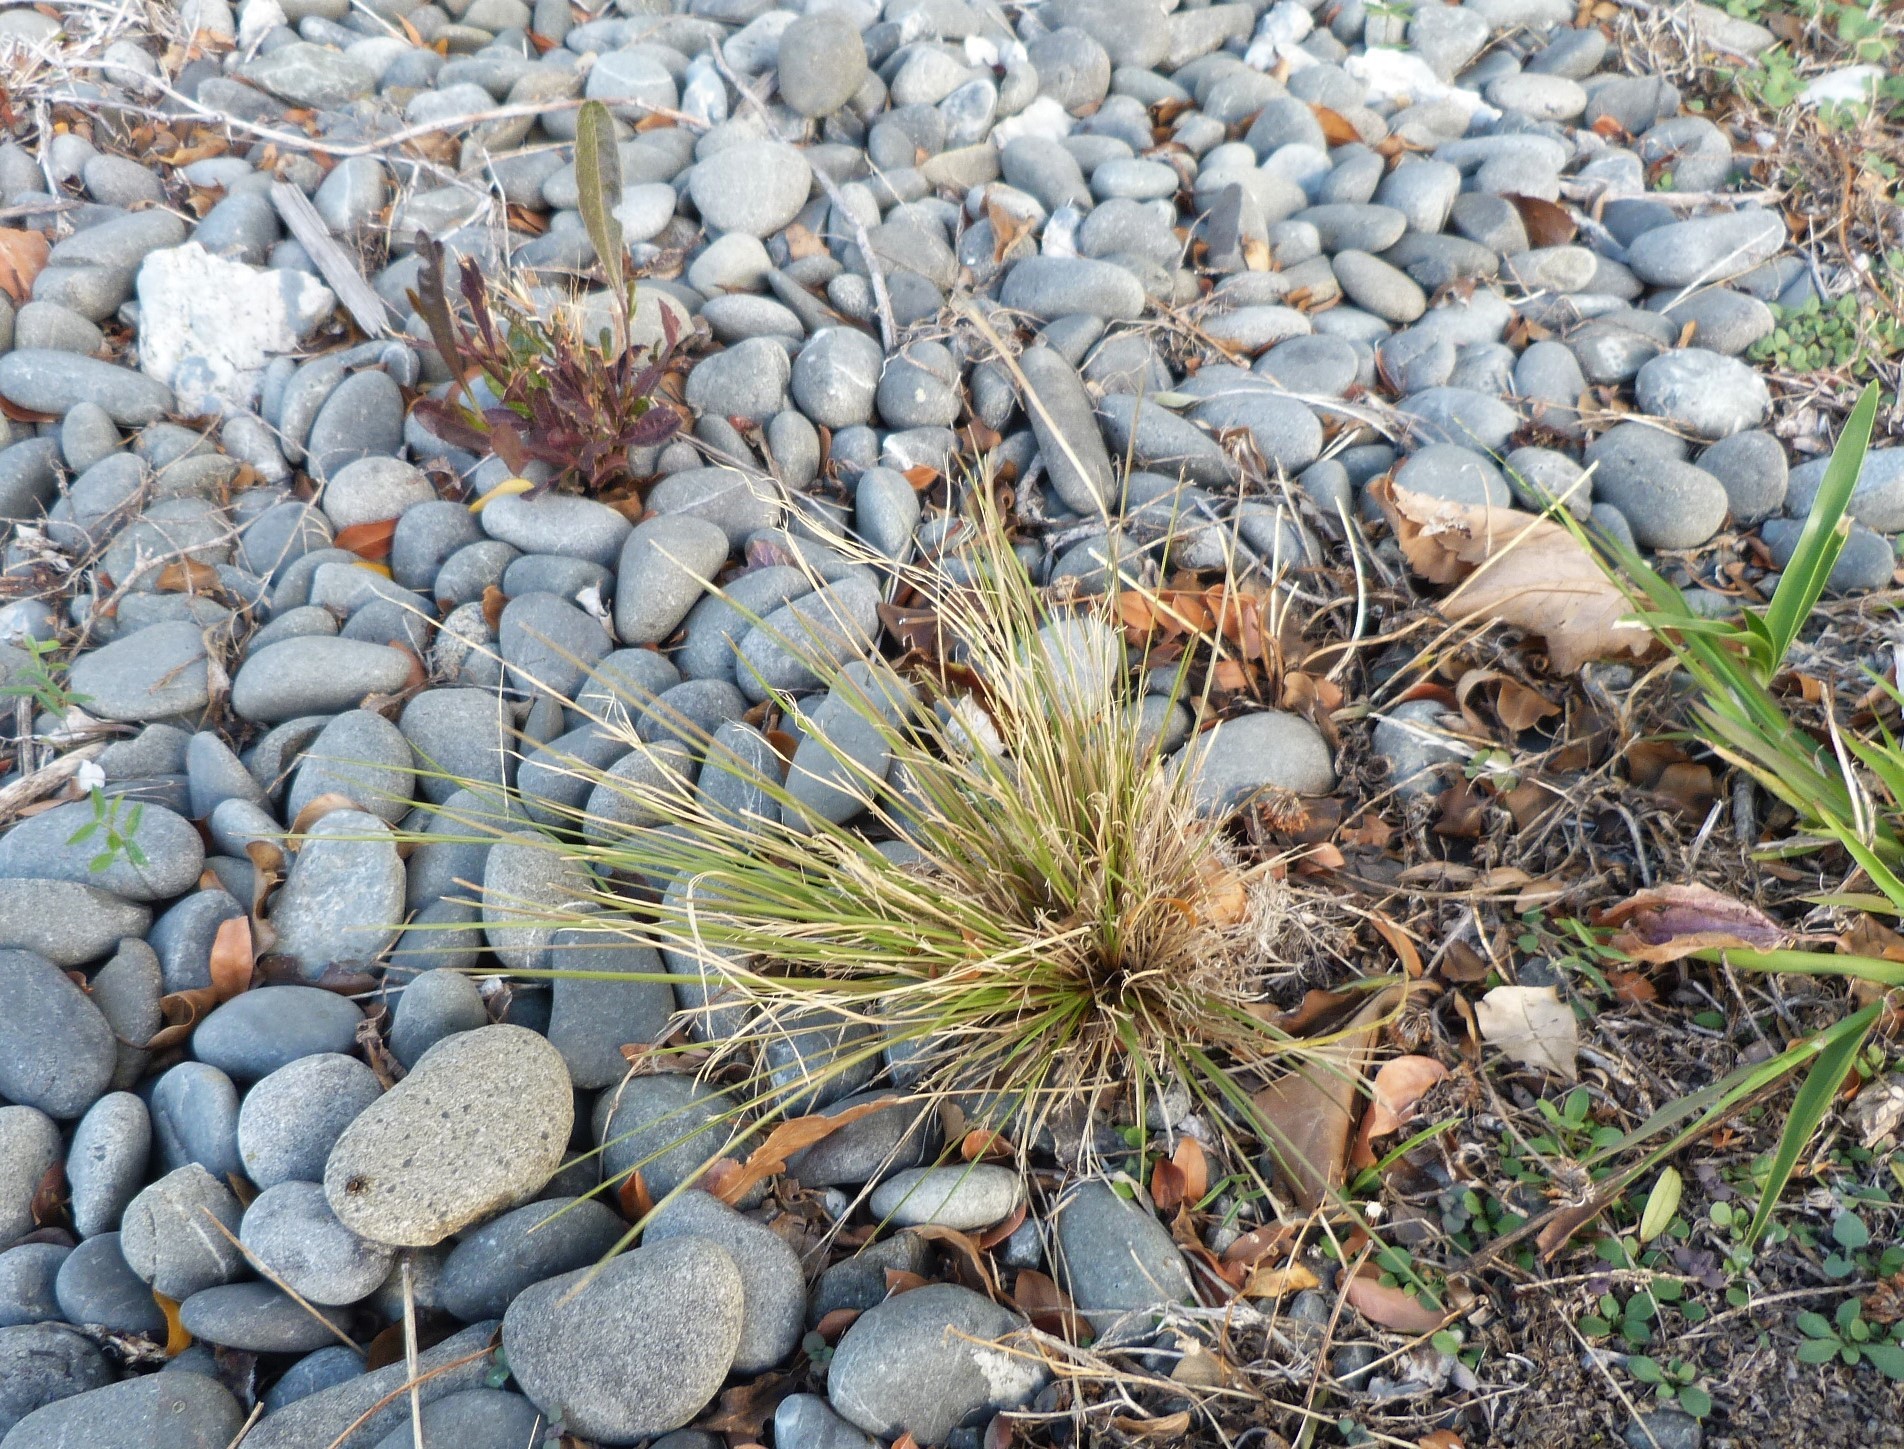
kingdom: Plantae
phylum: Tracheophyta
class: Liliopsida
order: Poales
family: Poaceae
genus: Poa
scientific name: Poa cita
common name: Silver tussock
